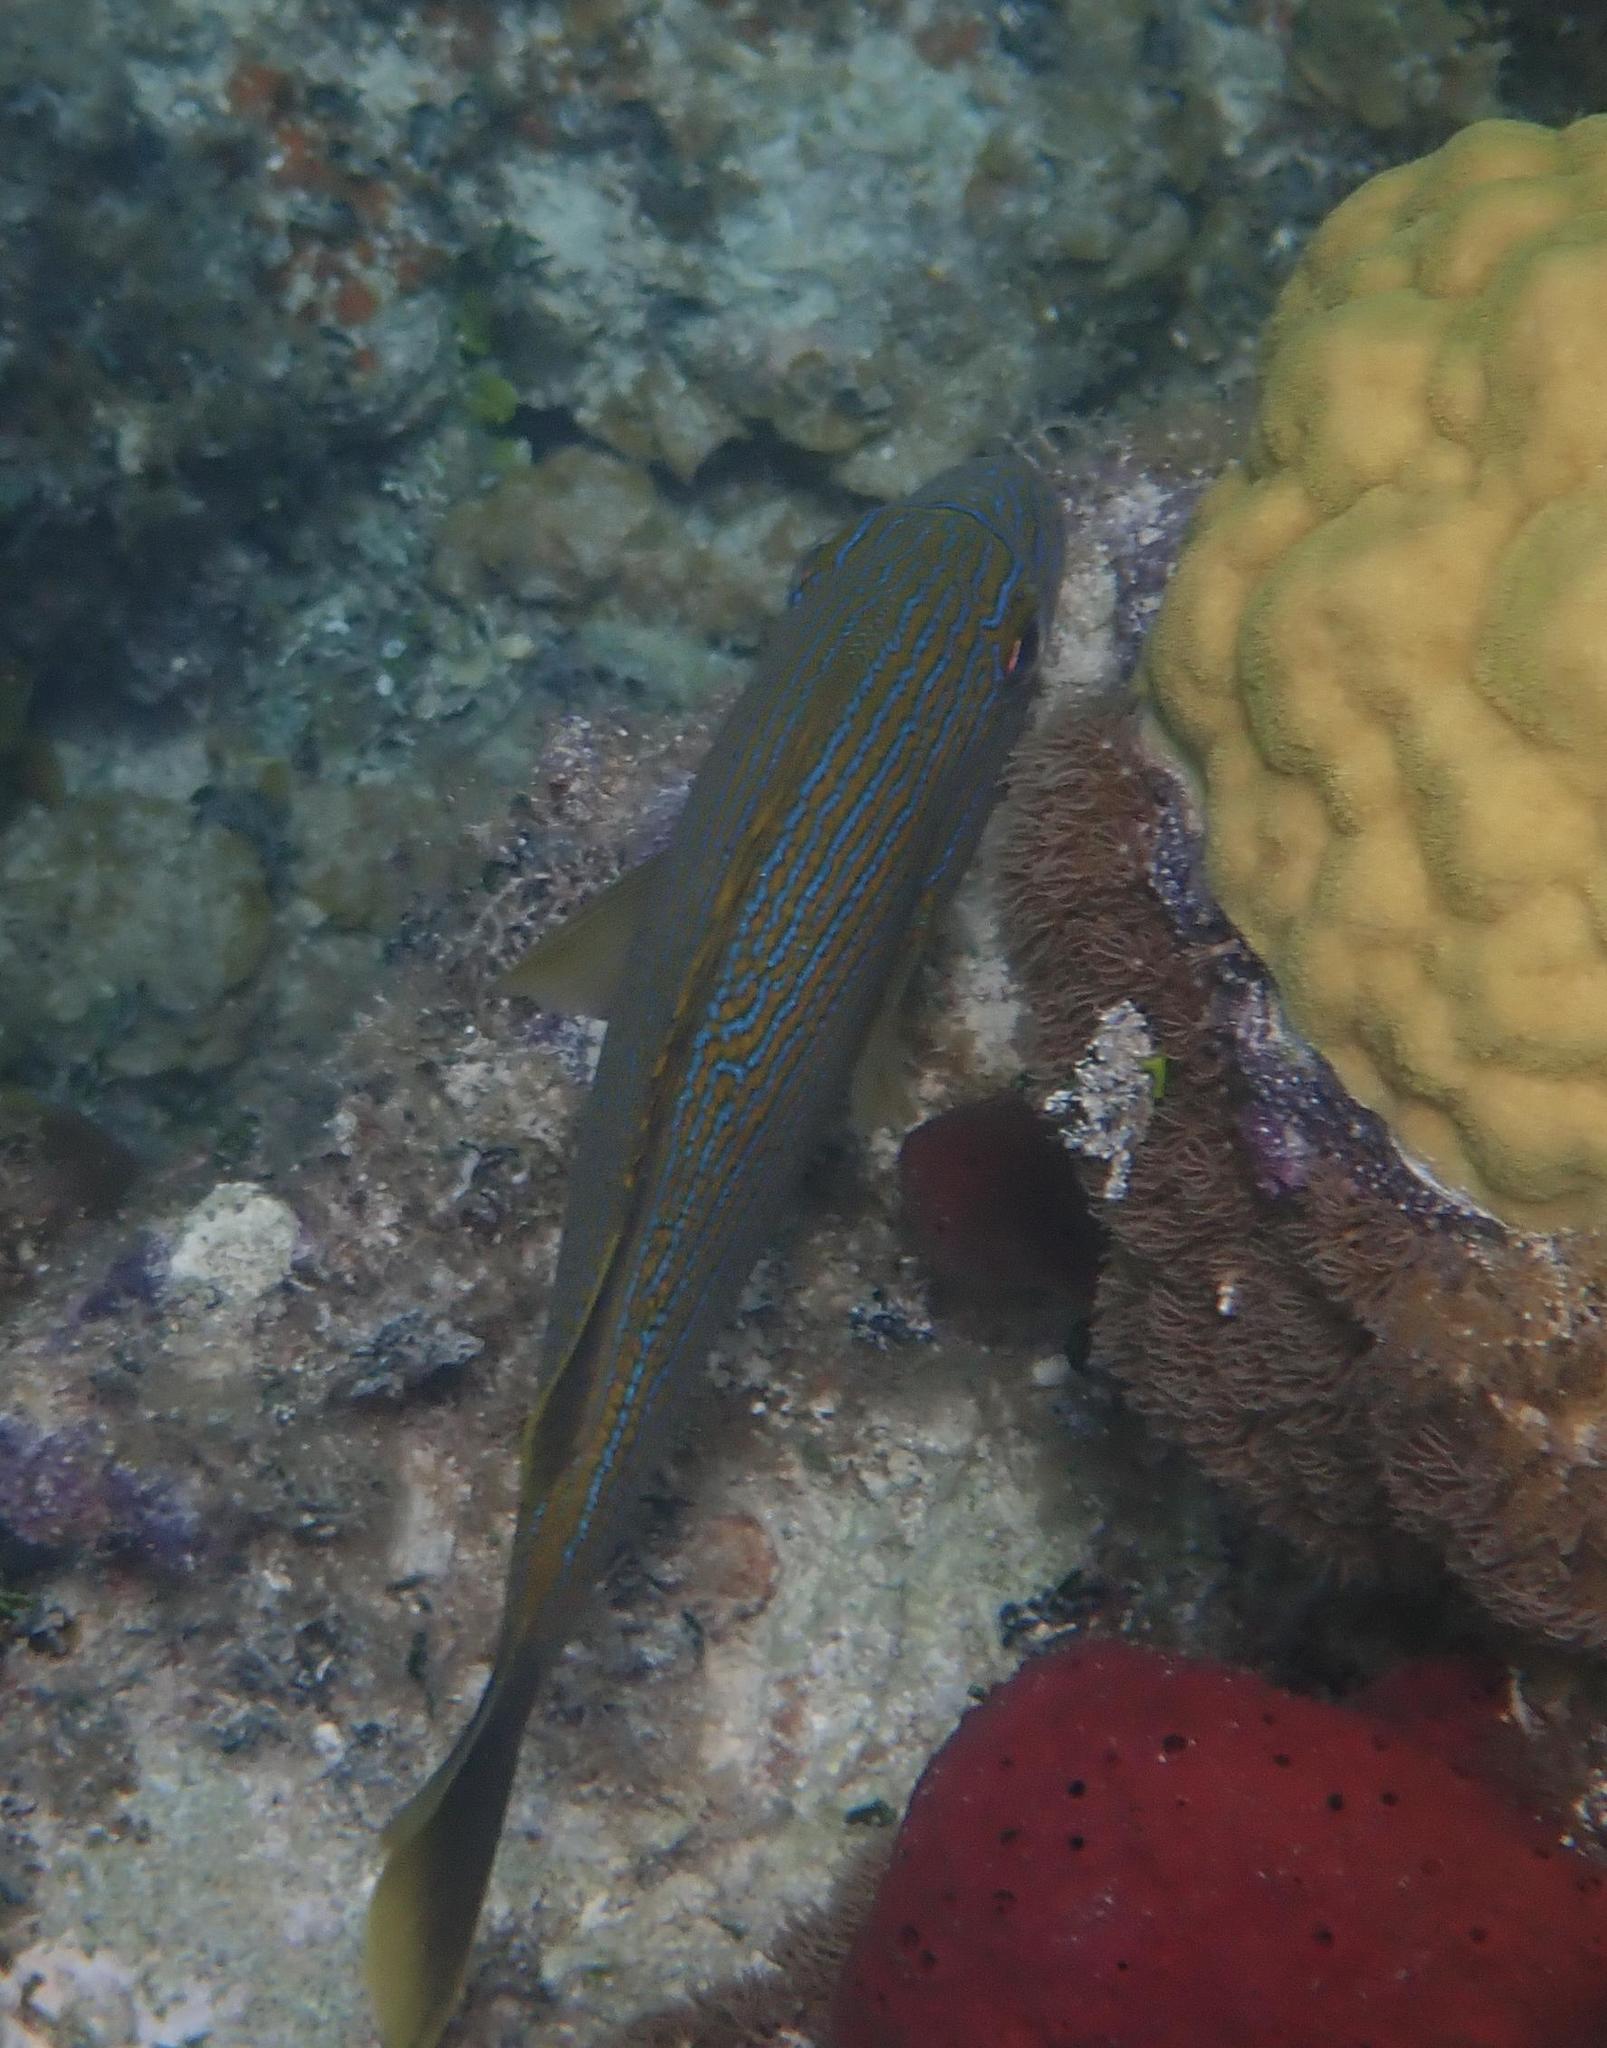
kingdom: Animalia
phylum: Chordata
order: Perciformes
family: Haemulidae
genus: Haemulon
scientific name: Haemulon sciurus
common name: Bluestriped grunt
